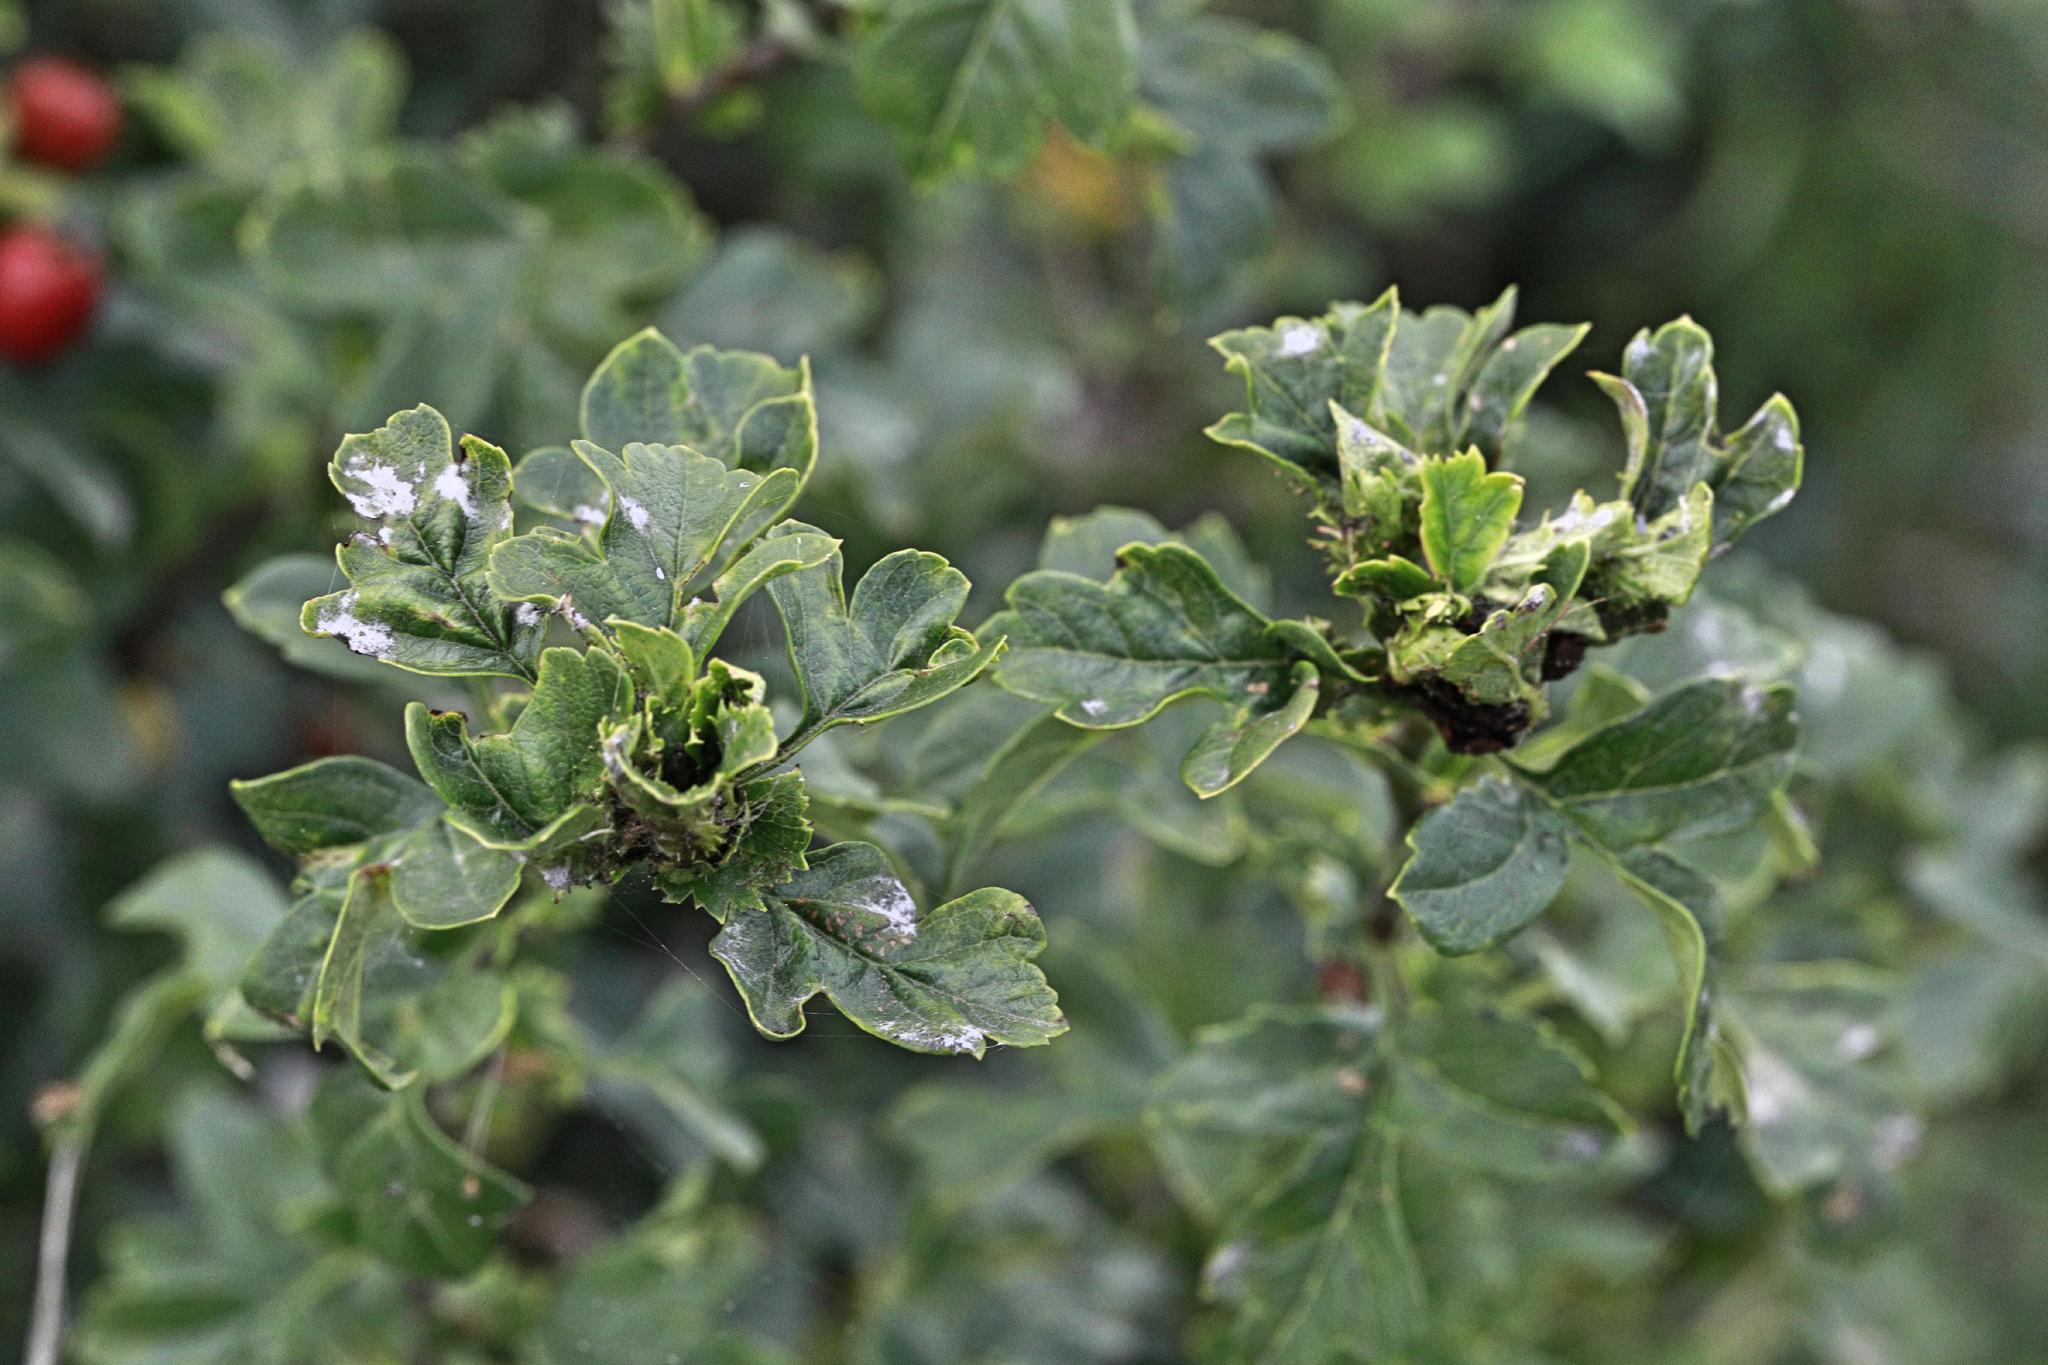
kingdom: Animalia
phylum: Arthropoda
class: Insecta
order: Diptera
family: Cecidomyiidae
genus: Dasineura
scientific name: Dasineura crataegi
